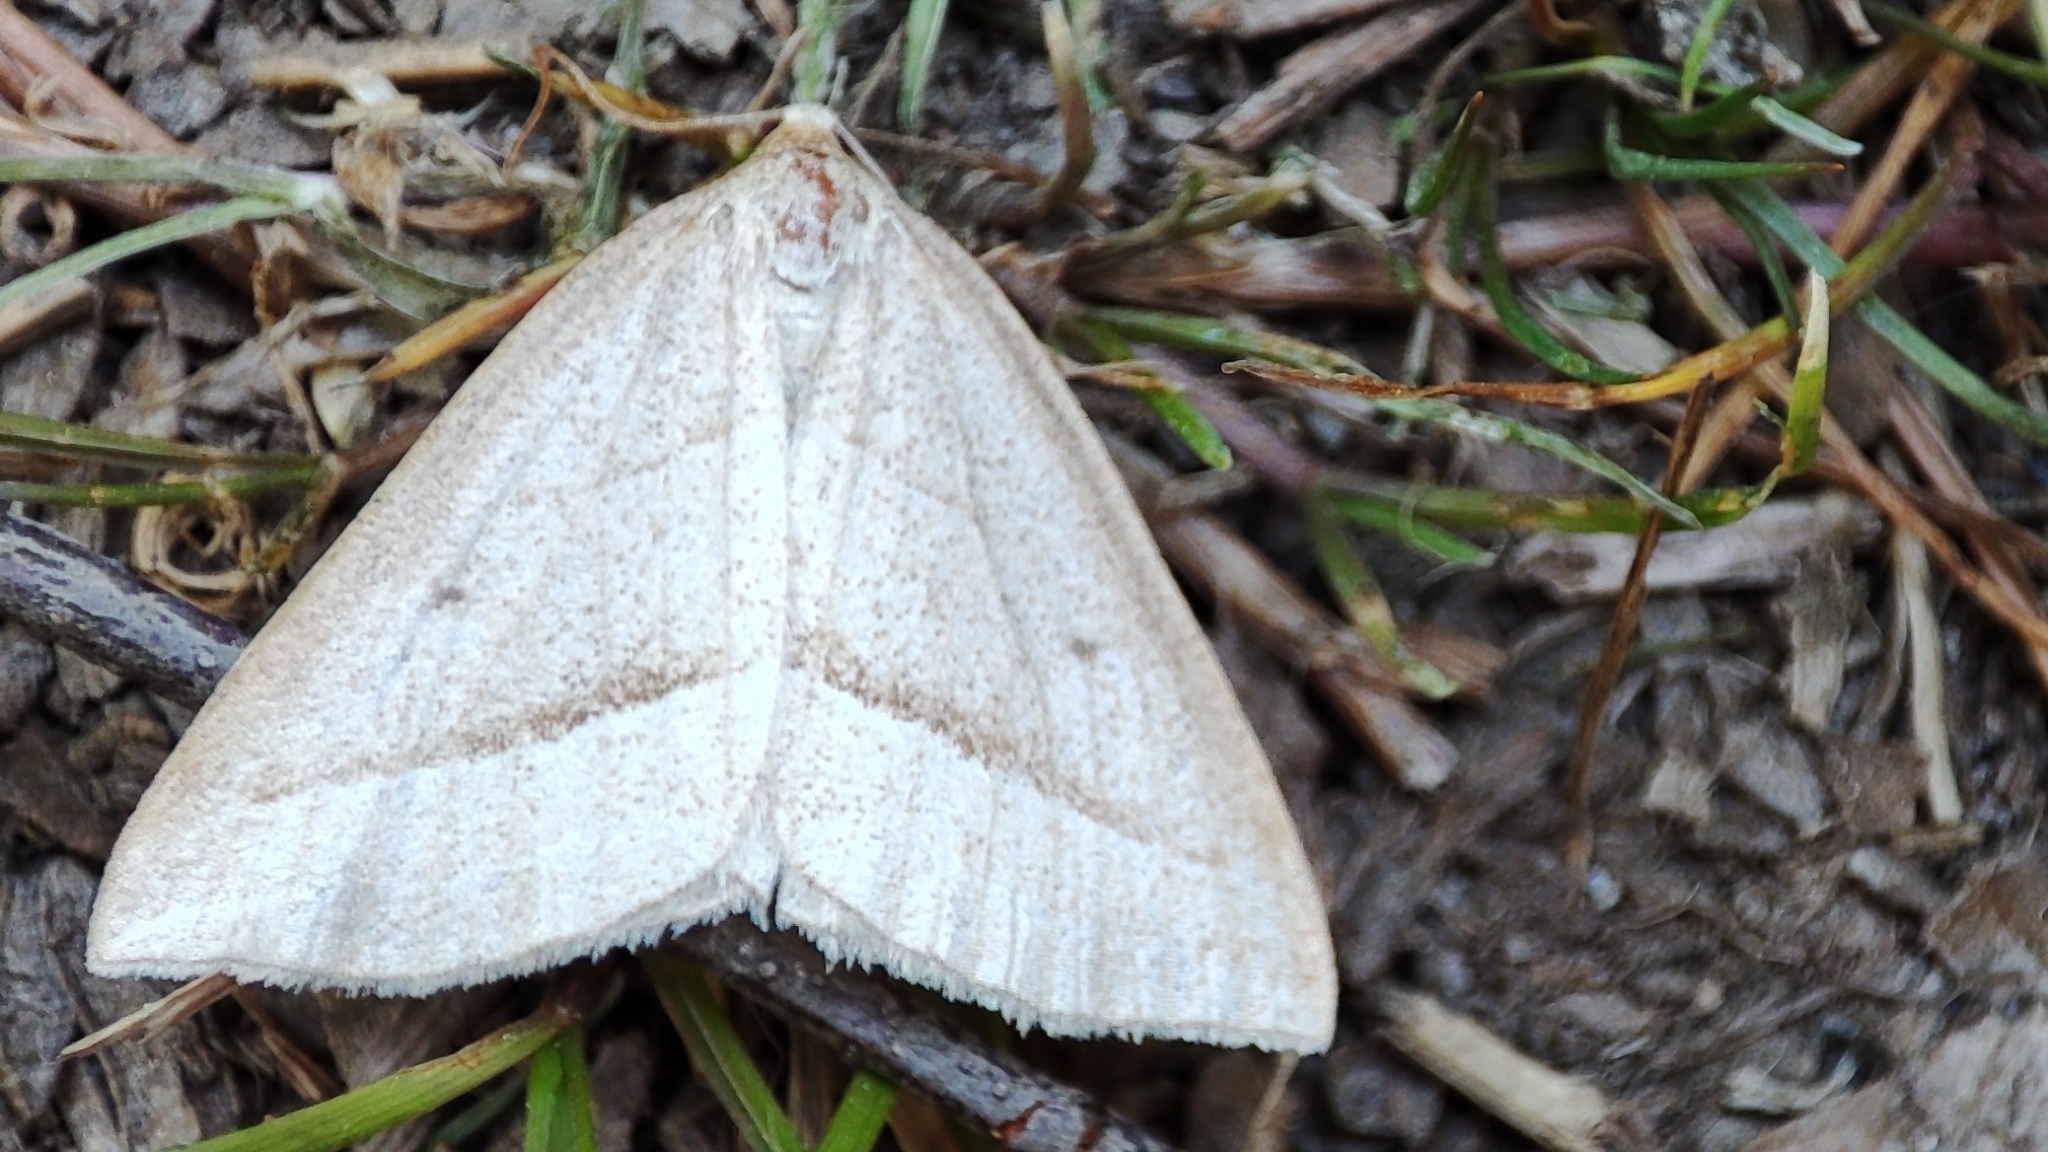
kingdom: Animalia
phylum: Arthropoda
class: Insecta
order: Lepidoptera
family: Pterophoridae
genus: Pterophorus
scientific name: Pterophorus Petrophora chlorosata
